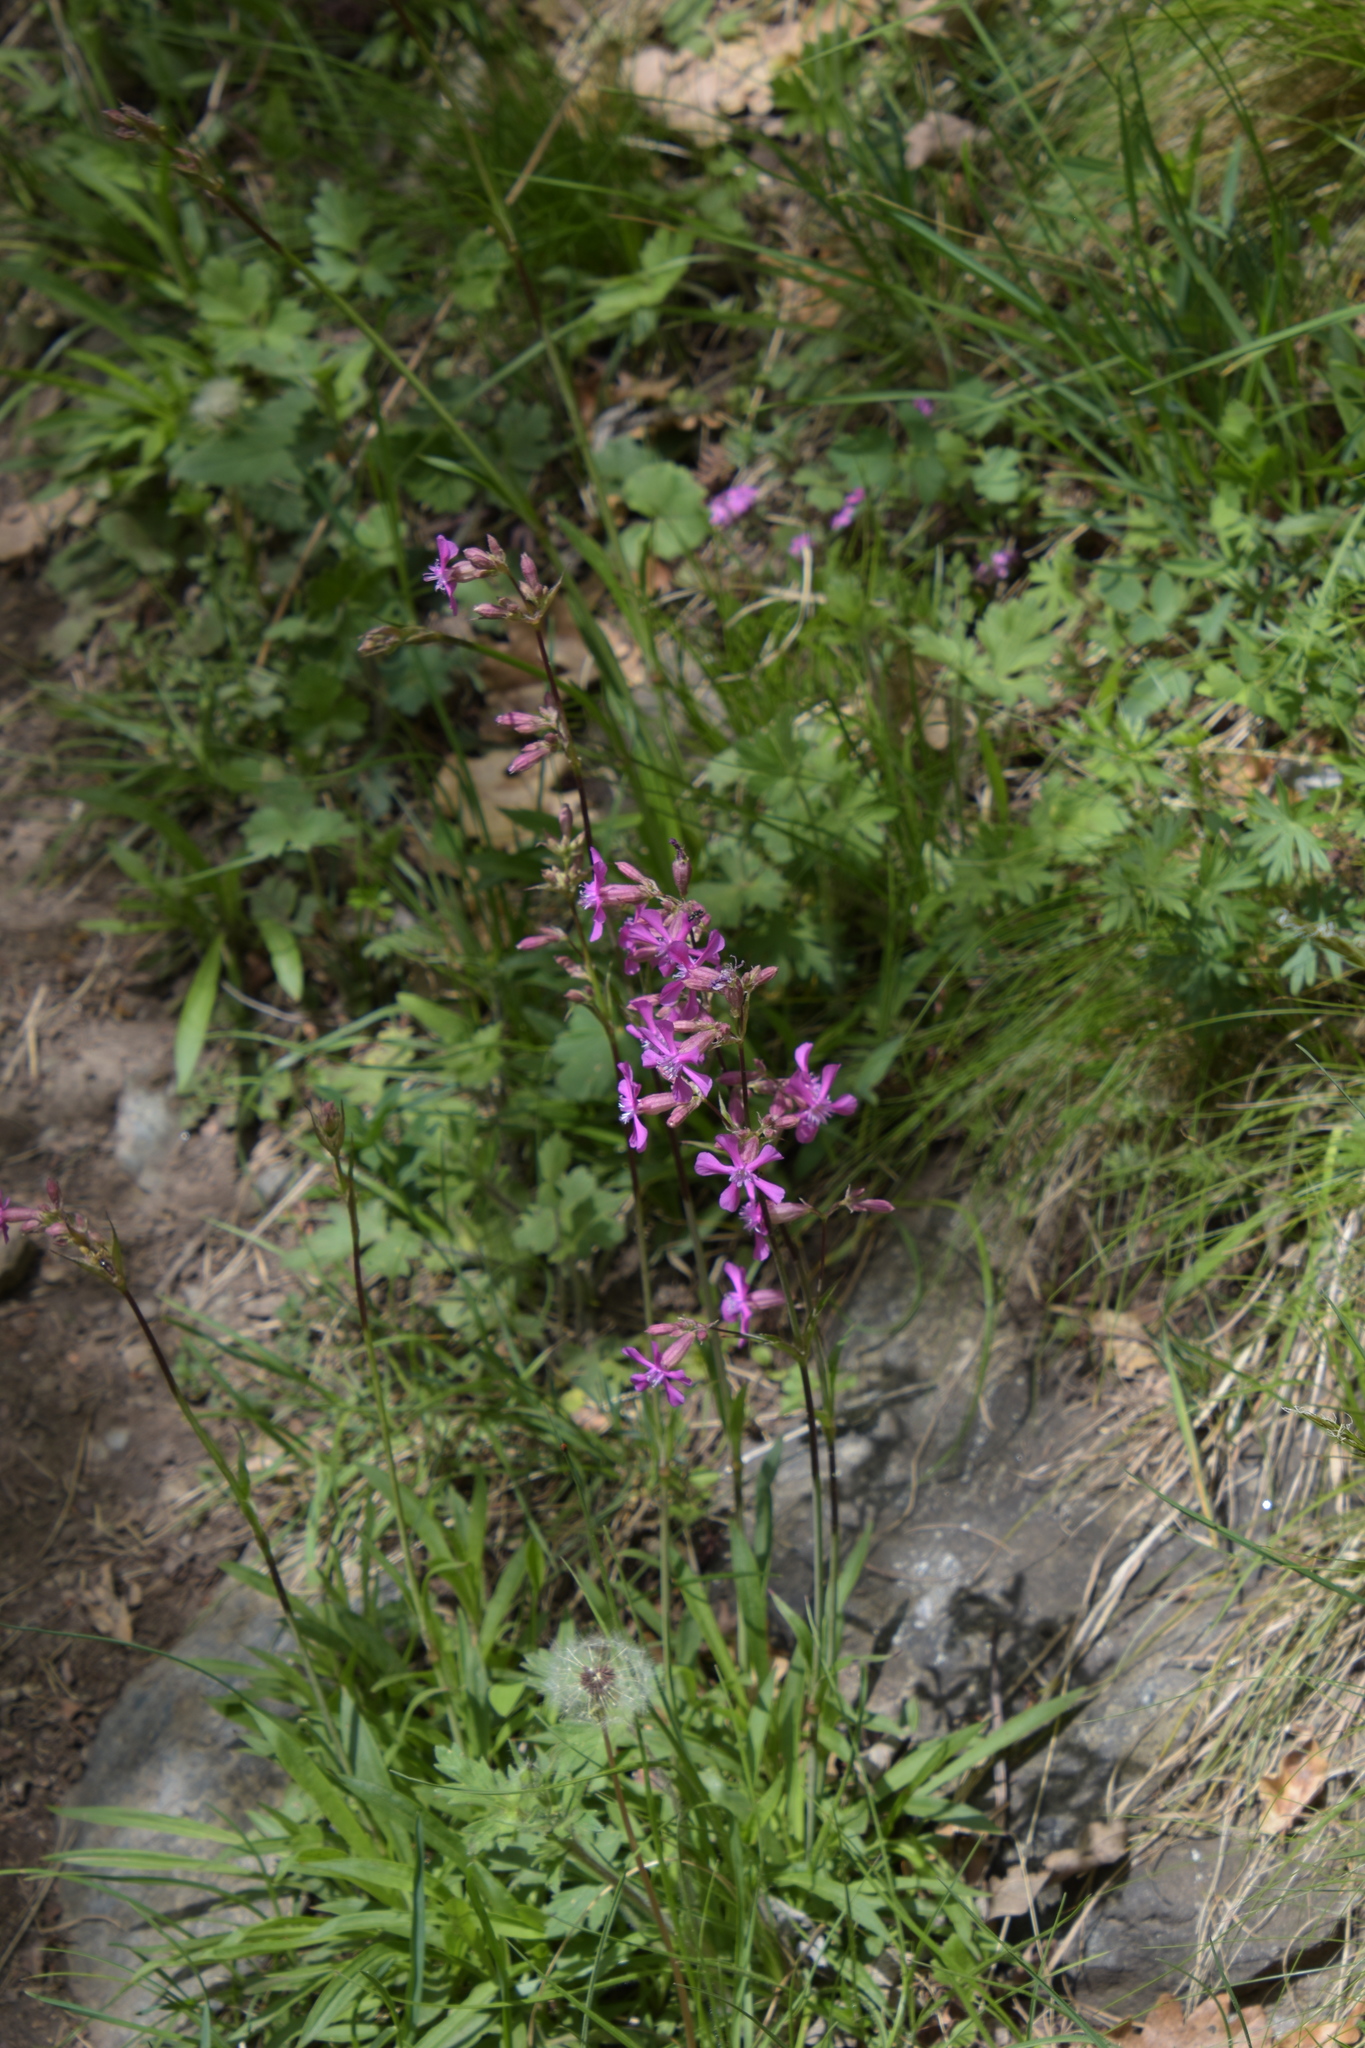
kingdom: Plantae
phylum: Tracheophyta
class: Magnoliopsida
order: Caryophyllales
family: Caryophyllaceae
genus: Viscaria
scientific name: Viscaria vulgaris
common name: Clammy campion
